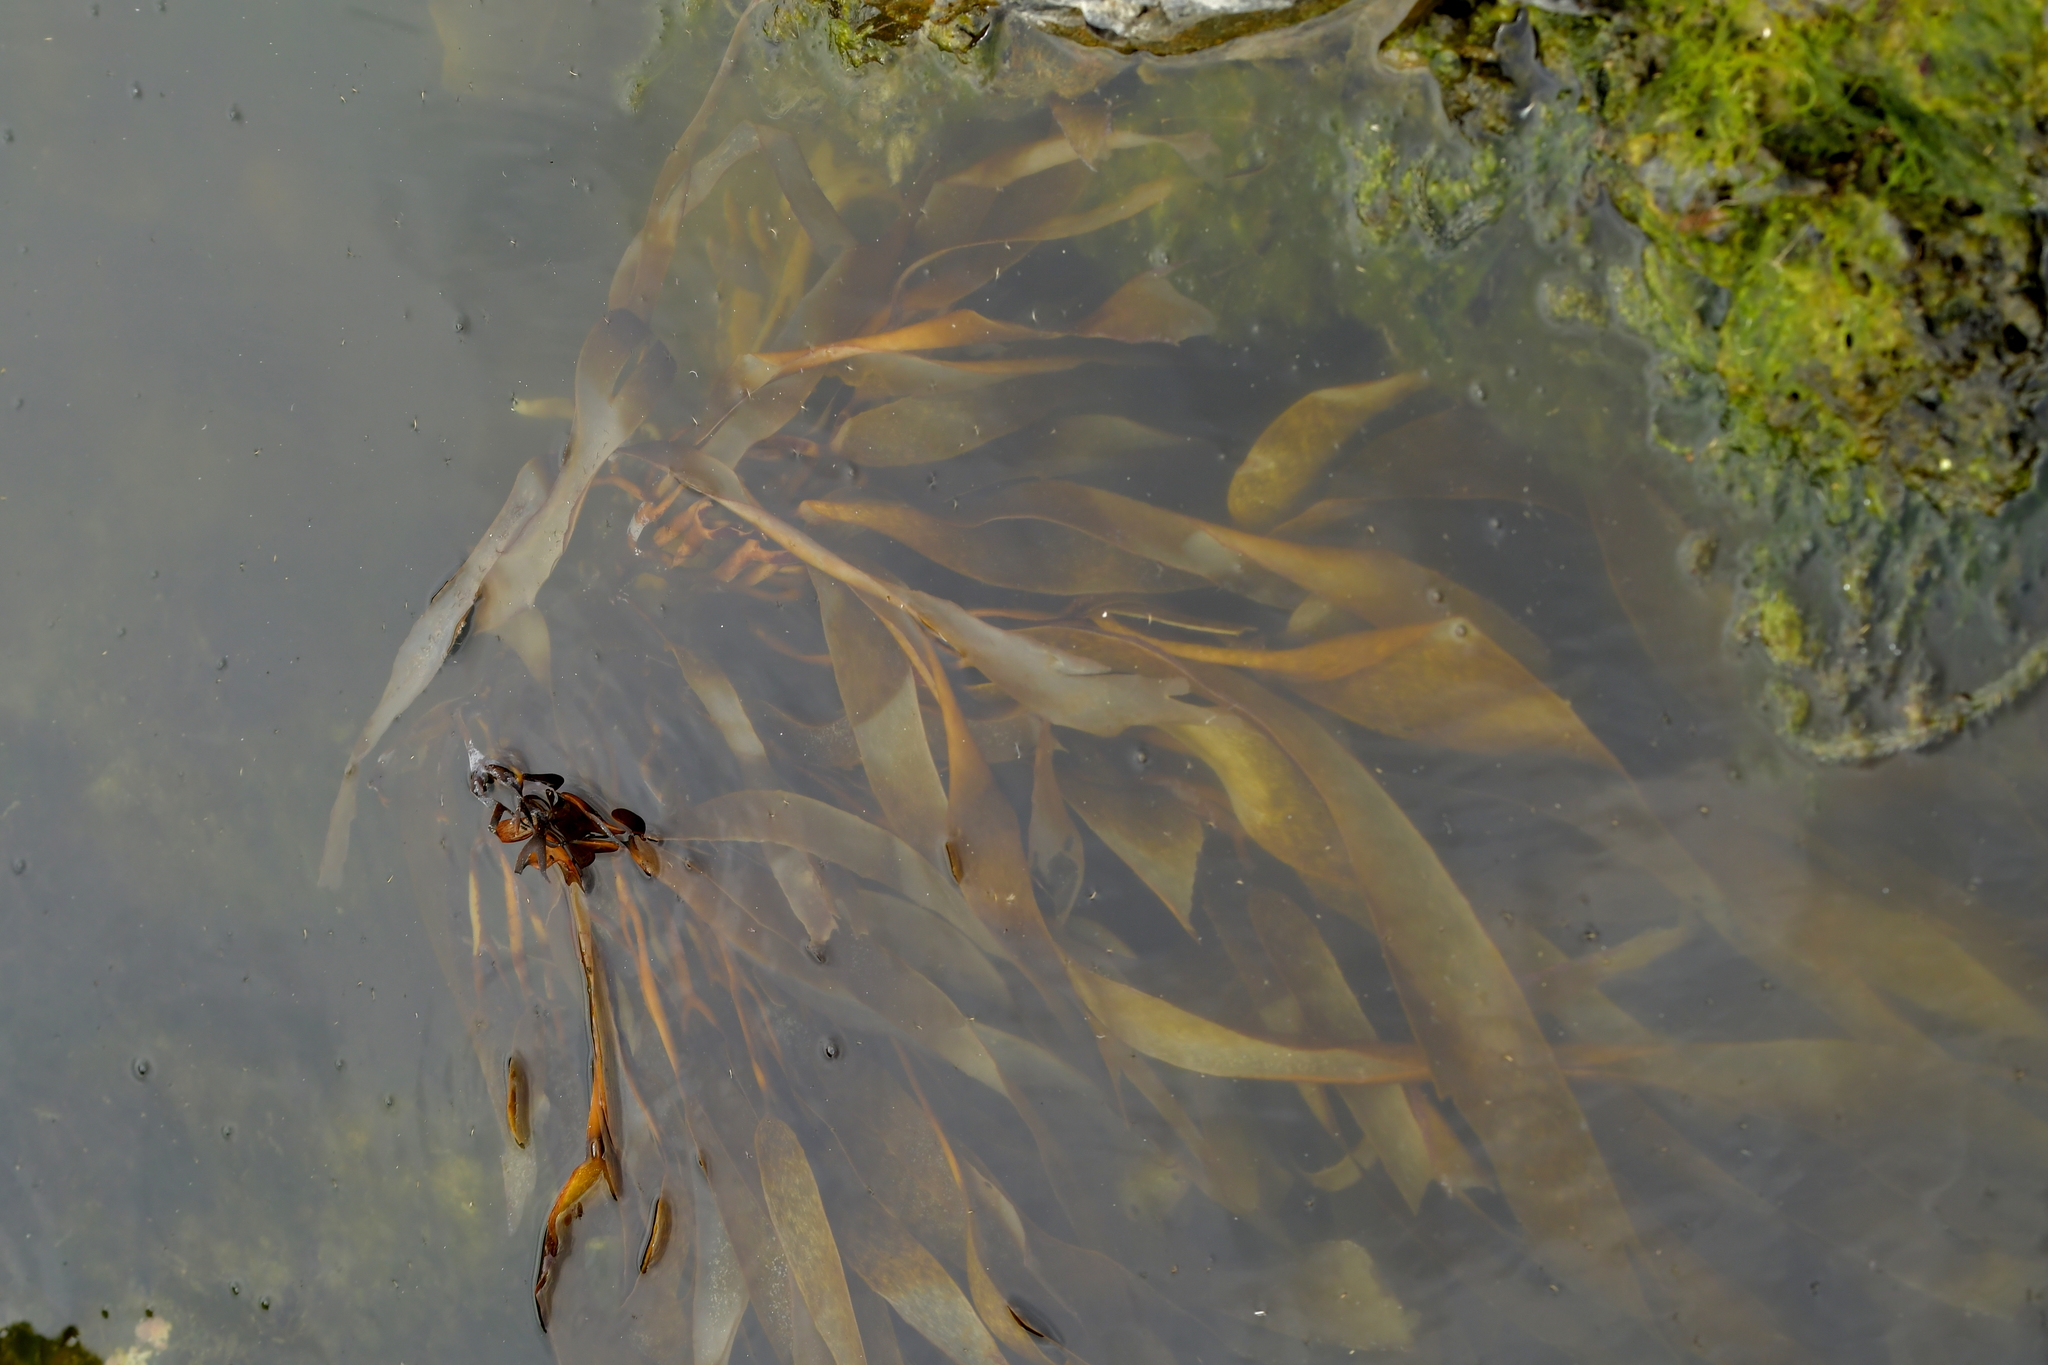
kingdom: Chromista
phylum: Ochrophyta
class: Phaeophyceae
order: Laminariales
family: Lessoniaceae
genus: Lessonia
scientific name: Lessonia variegata
